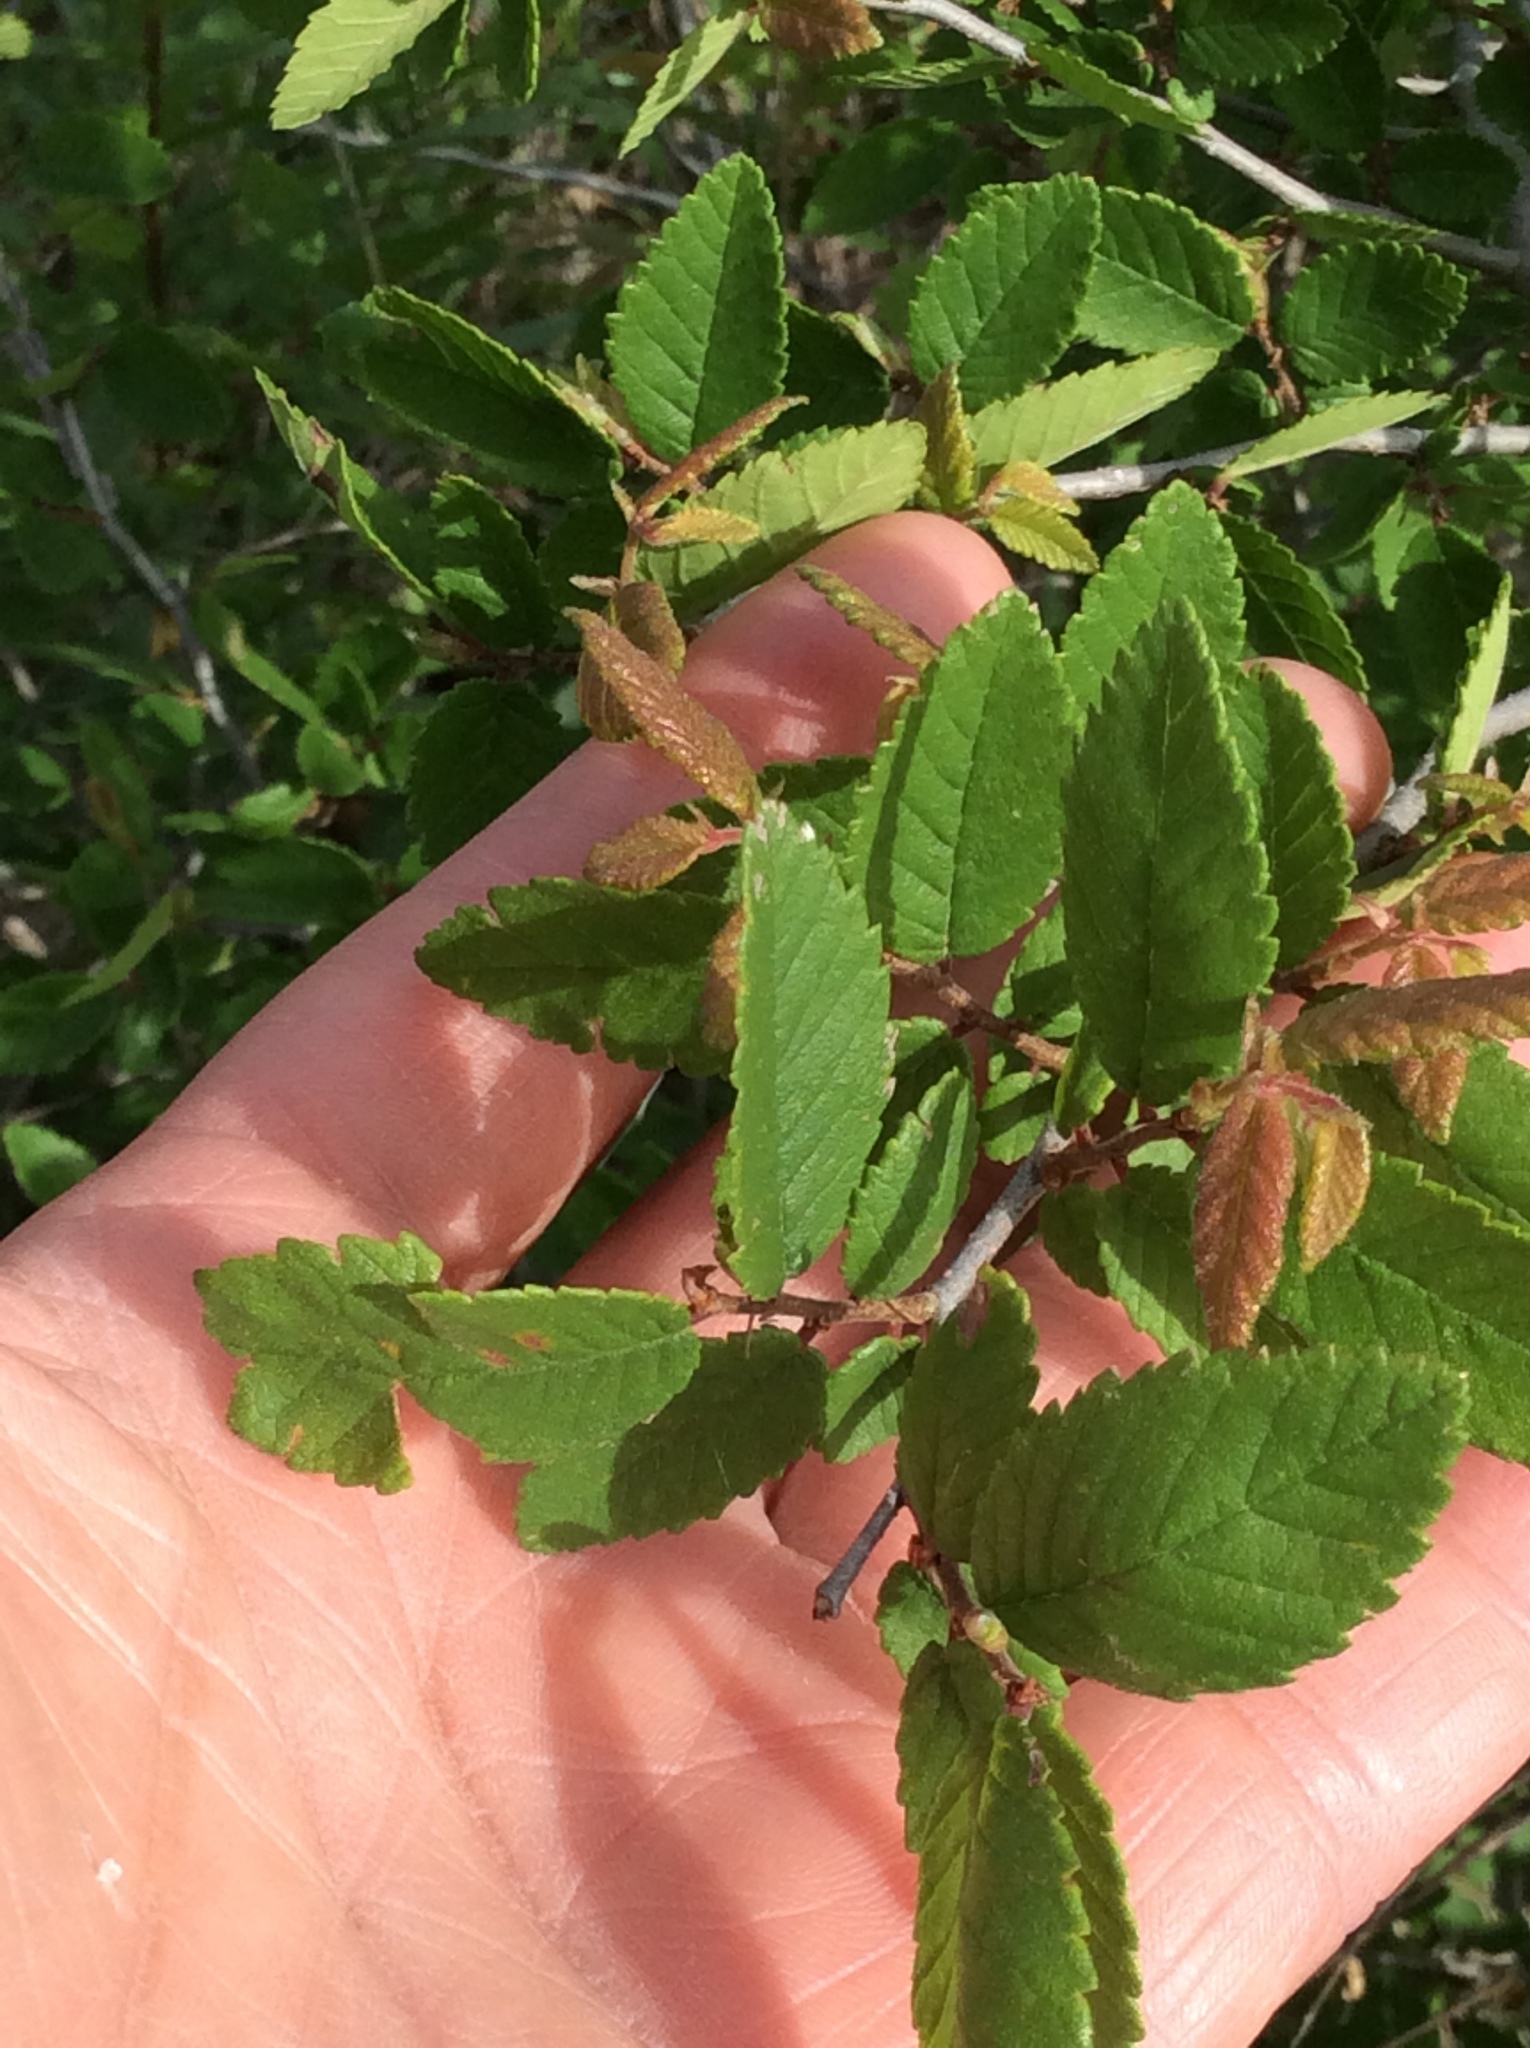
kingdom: Plantae
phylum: Tracheophyta
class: Magnoliopsida
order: Rosales
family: Ulmaceae
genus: Ulmus
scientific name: Ulmus crassifolia
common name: Basket elm
